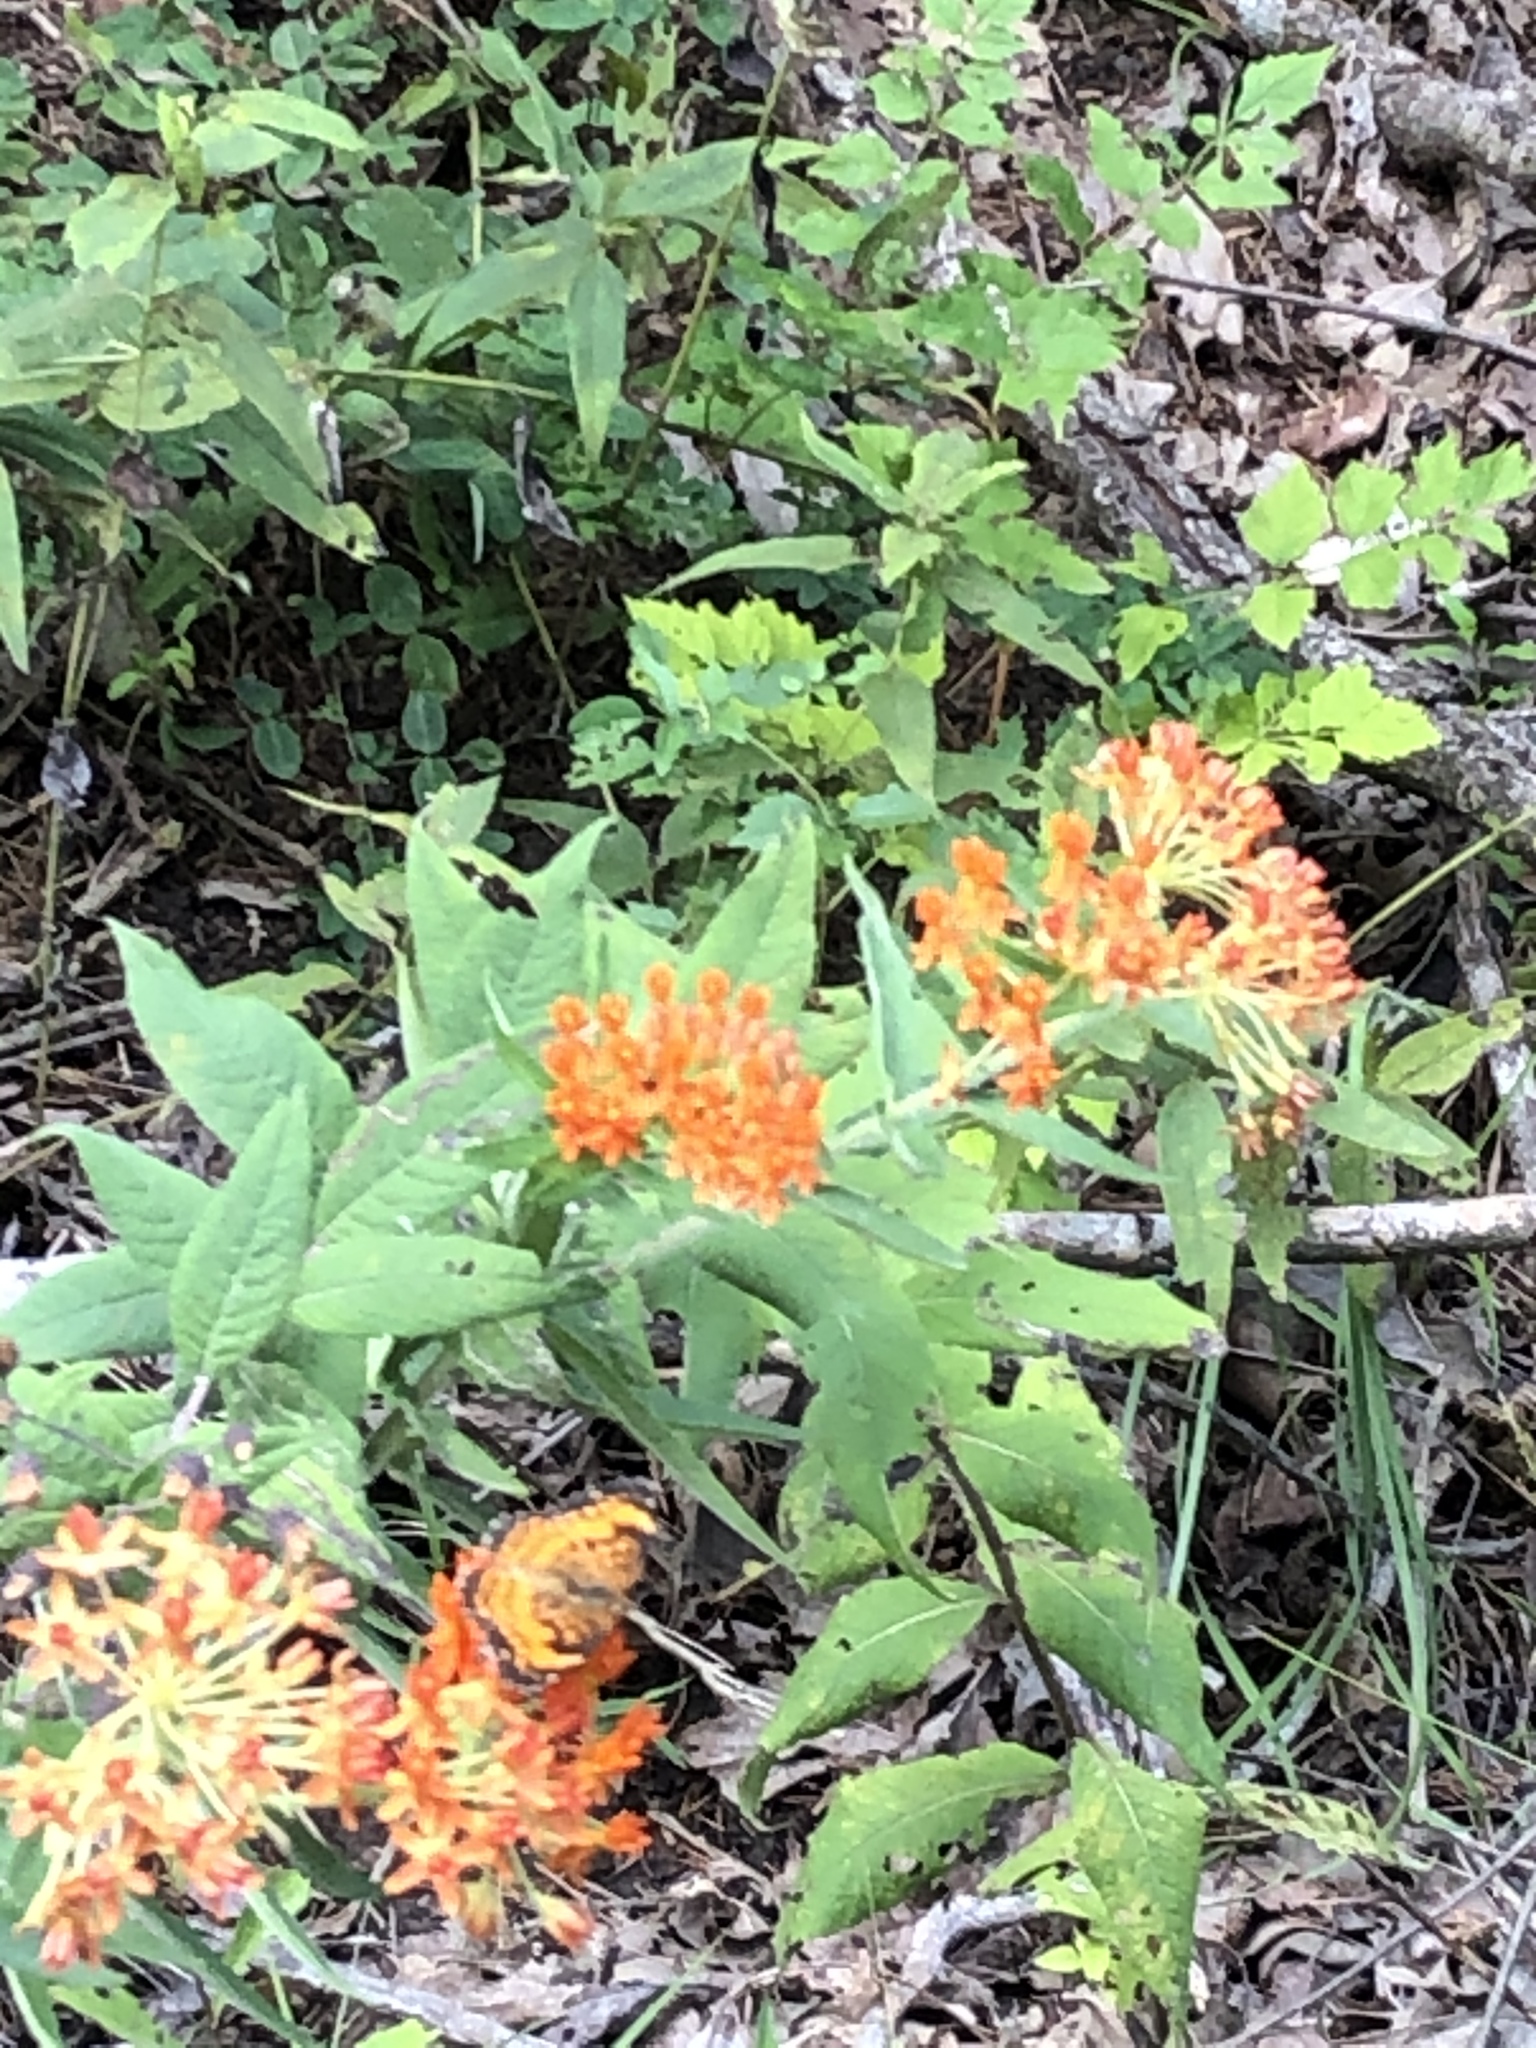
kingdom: Plantae
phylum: Tracheophyta
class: Magnoliopsida
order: Gentianales
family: Apocynaceae
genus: Asclepias
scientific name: Asclepias tuberosa
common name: Butterfly milkweed
